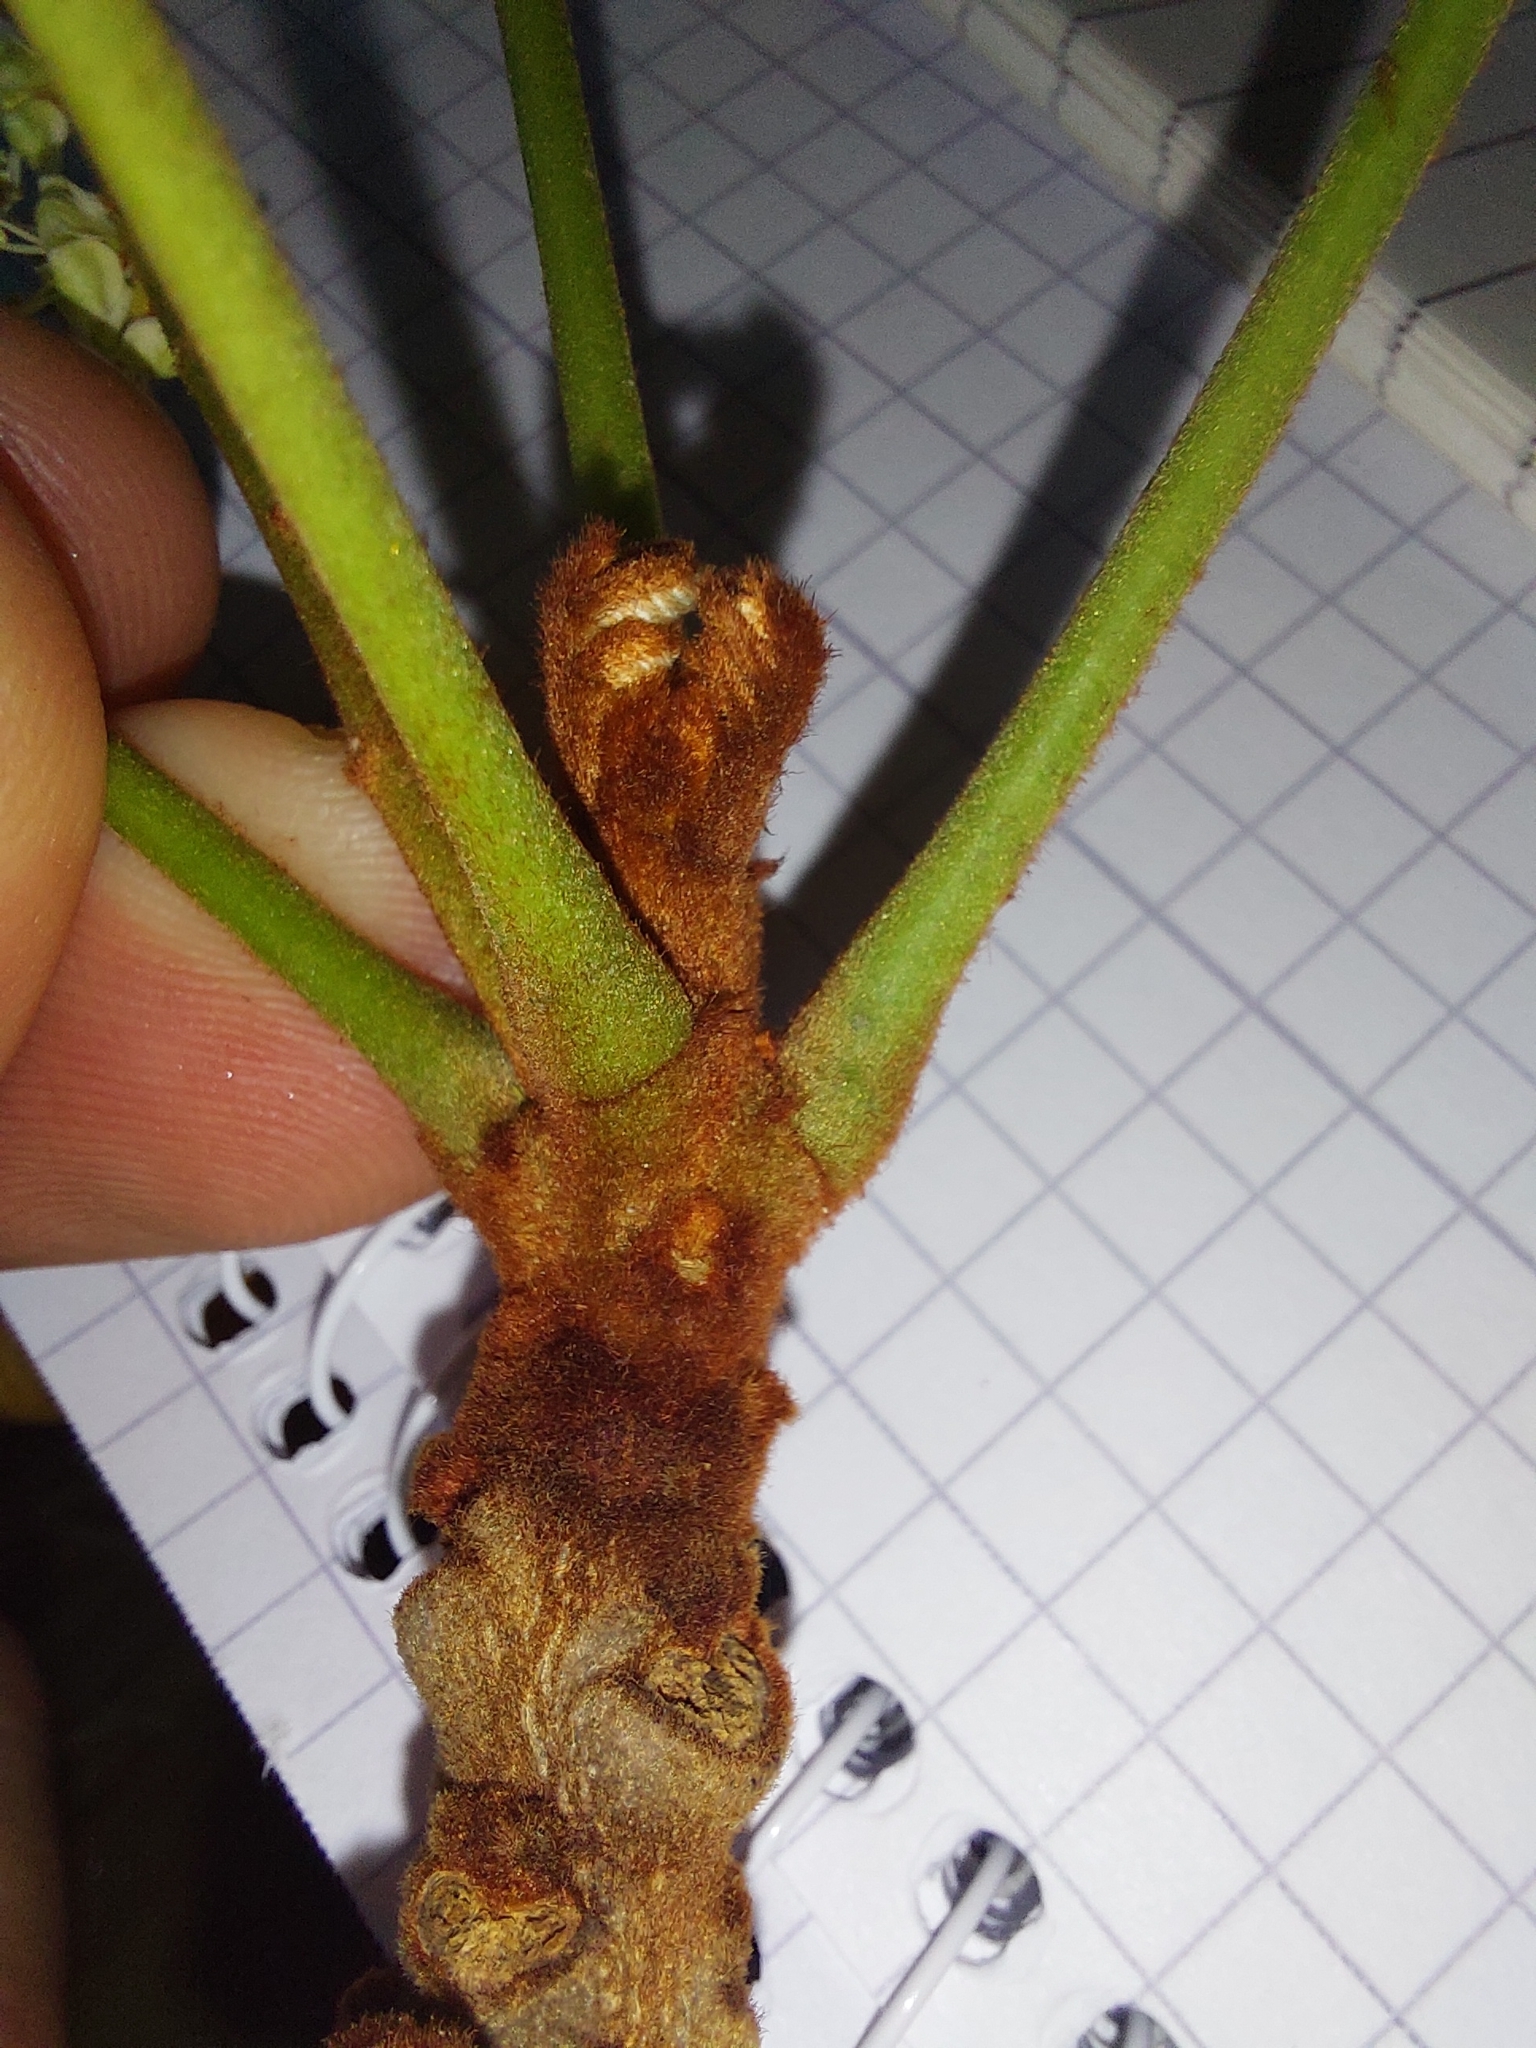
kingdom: Plantae
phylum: Tracheophyta
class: Magnoliopsida
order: Fabales
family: Fabaceae
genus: Burkea
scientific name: Burkea africana
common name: Mkalati tree
